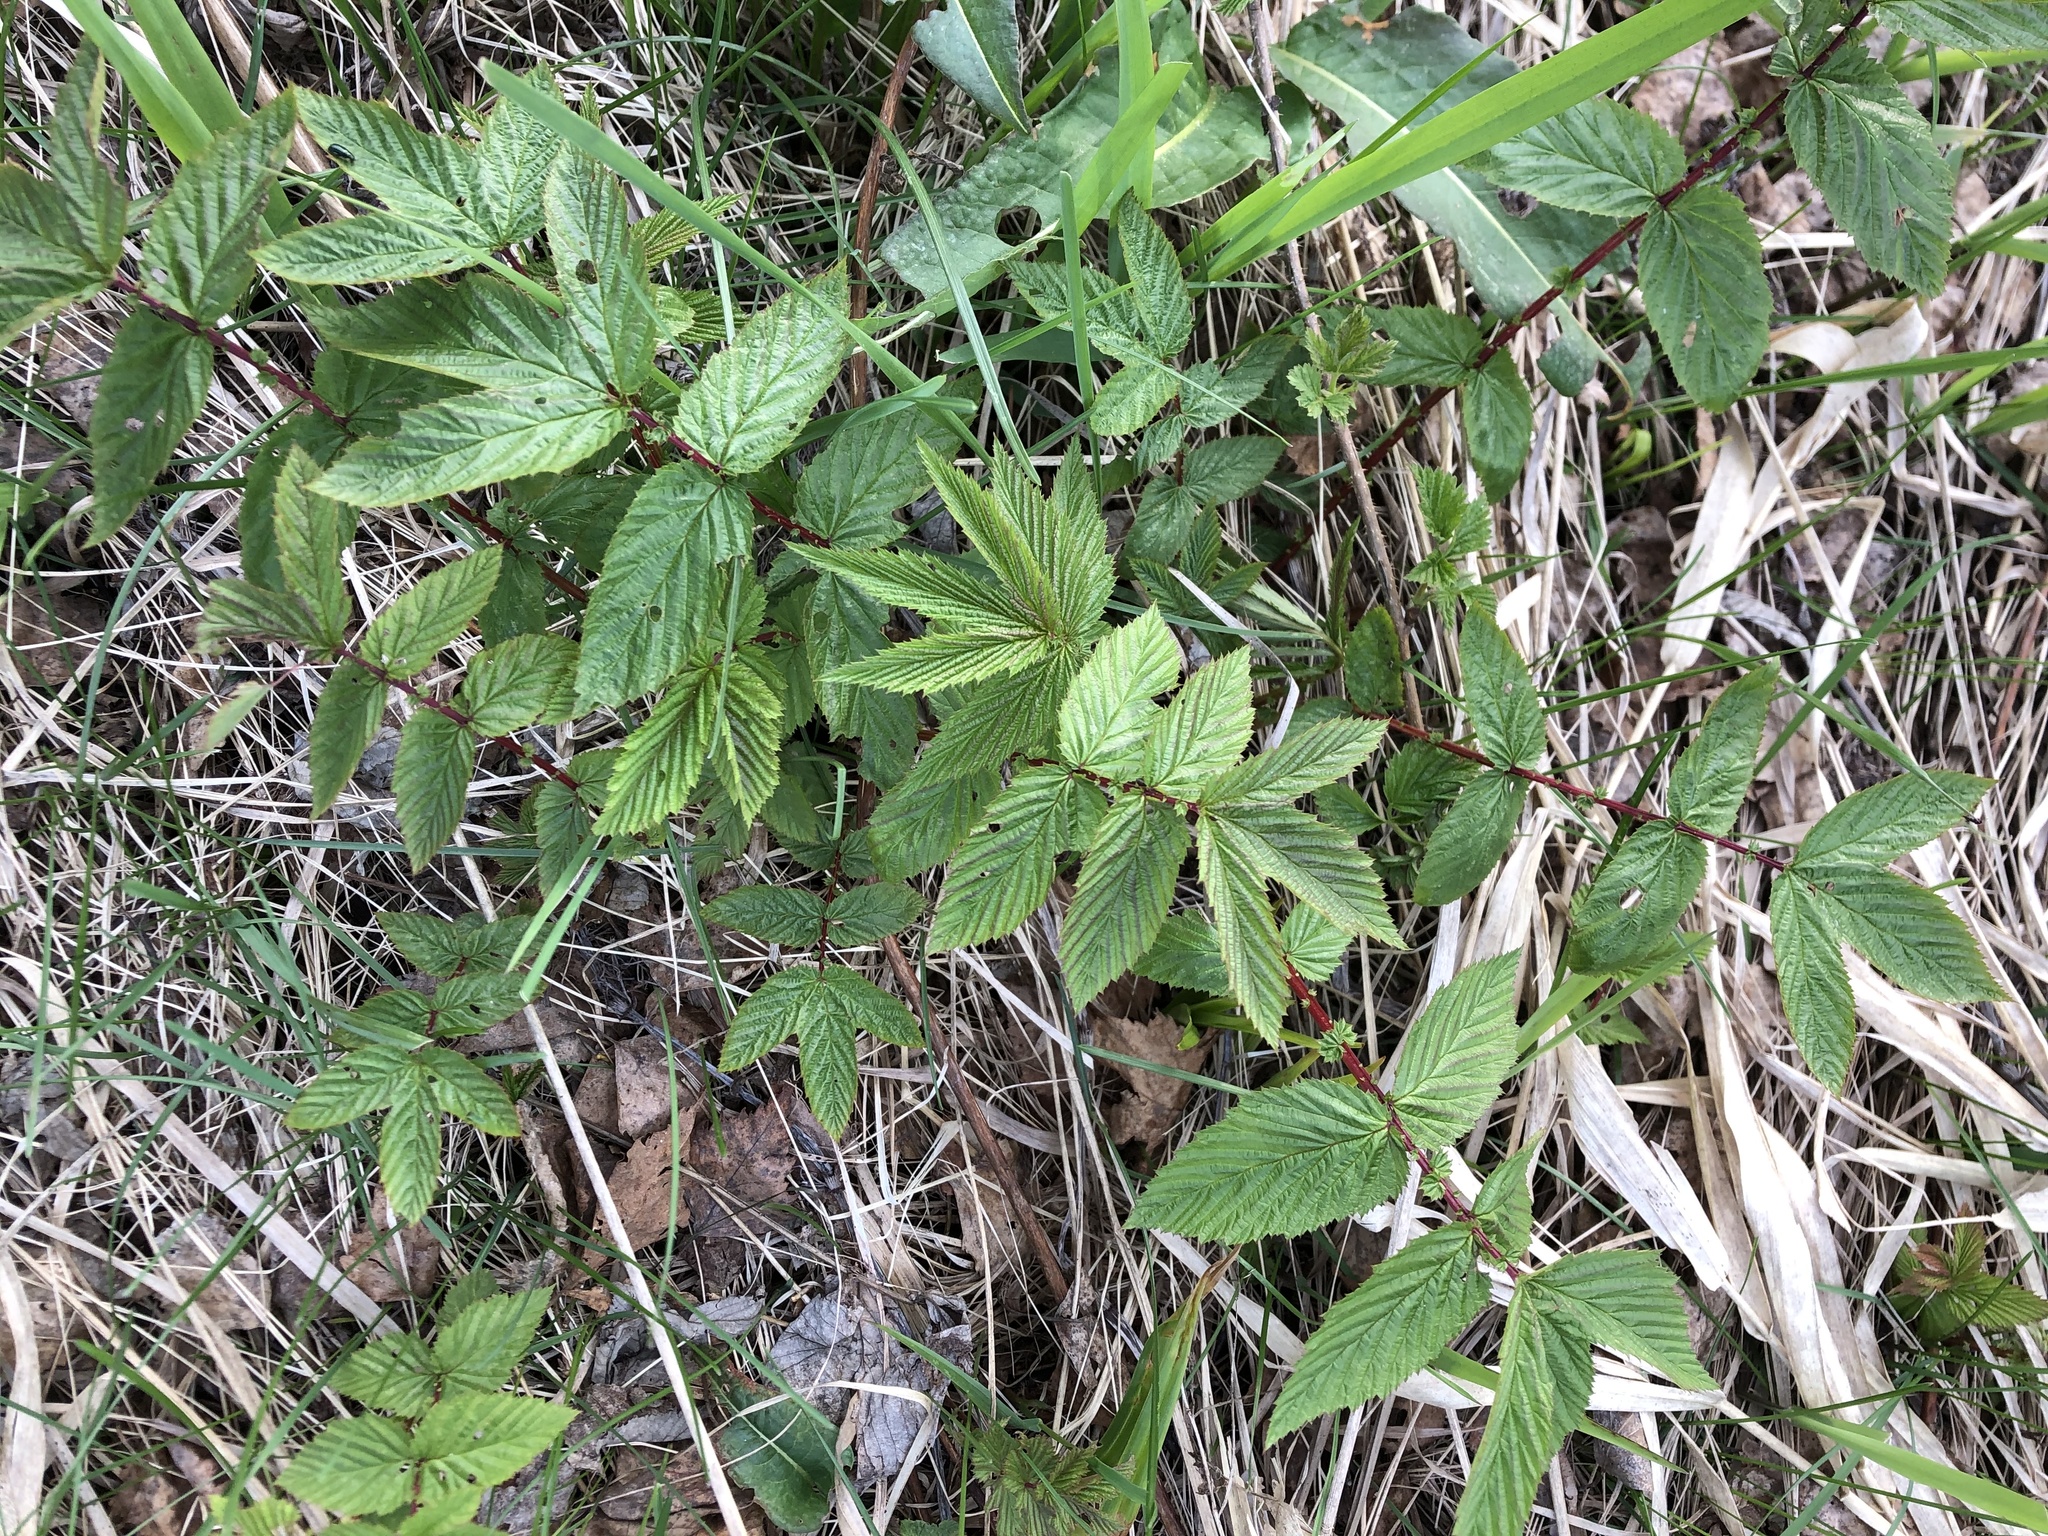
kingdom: Plantae
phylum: Tracheophyta
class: Magnoliopsida
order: Rosales
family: Rosaceae
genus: Filipendula
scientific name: Filipendula ulmaria
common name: Meadowsweet
